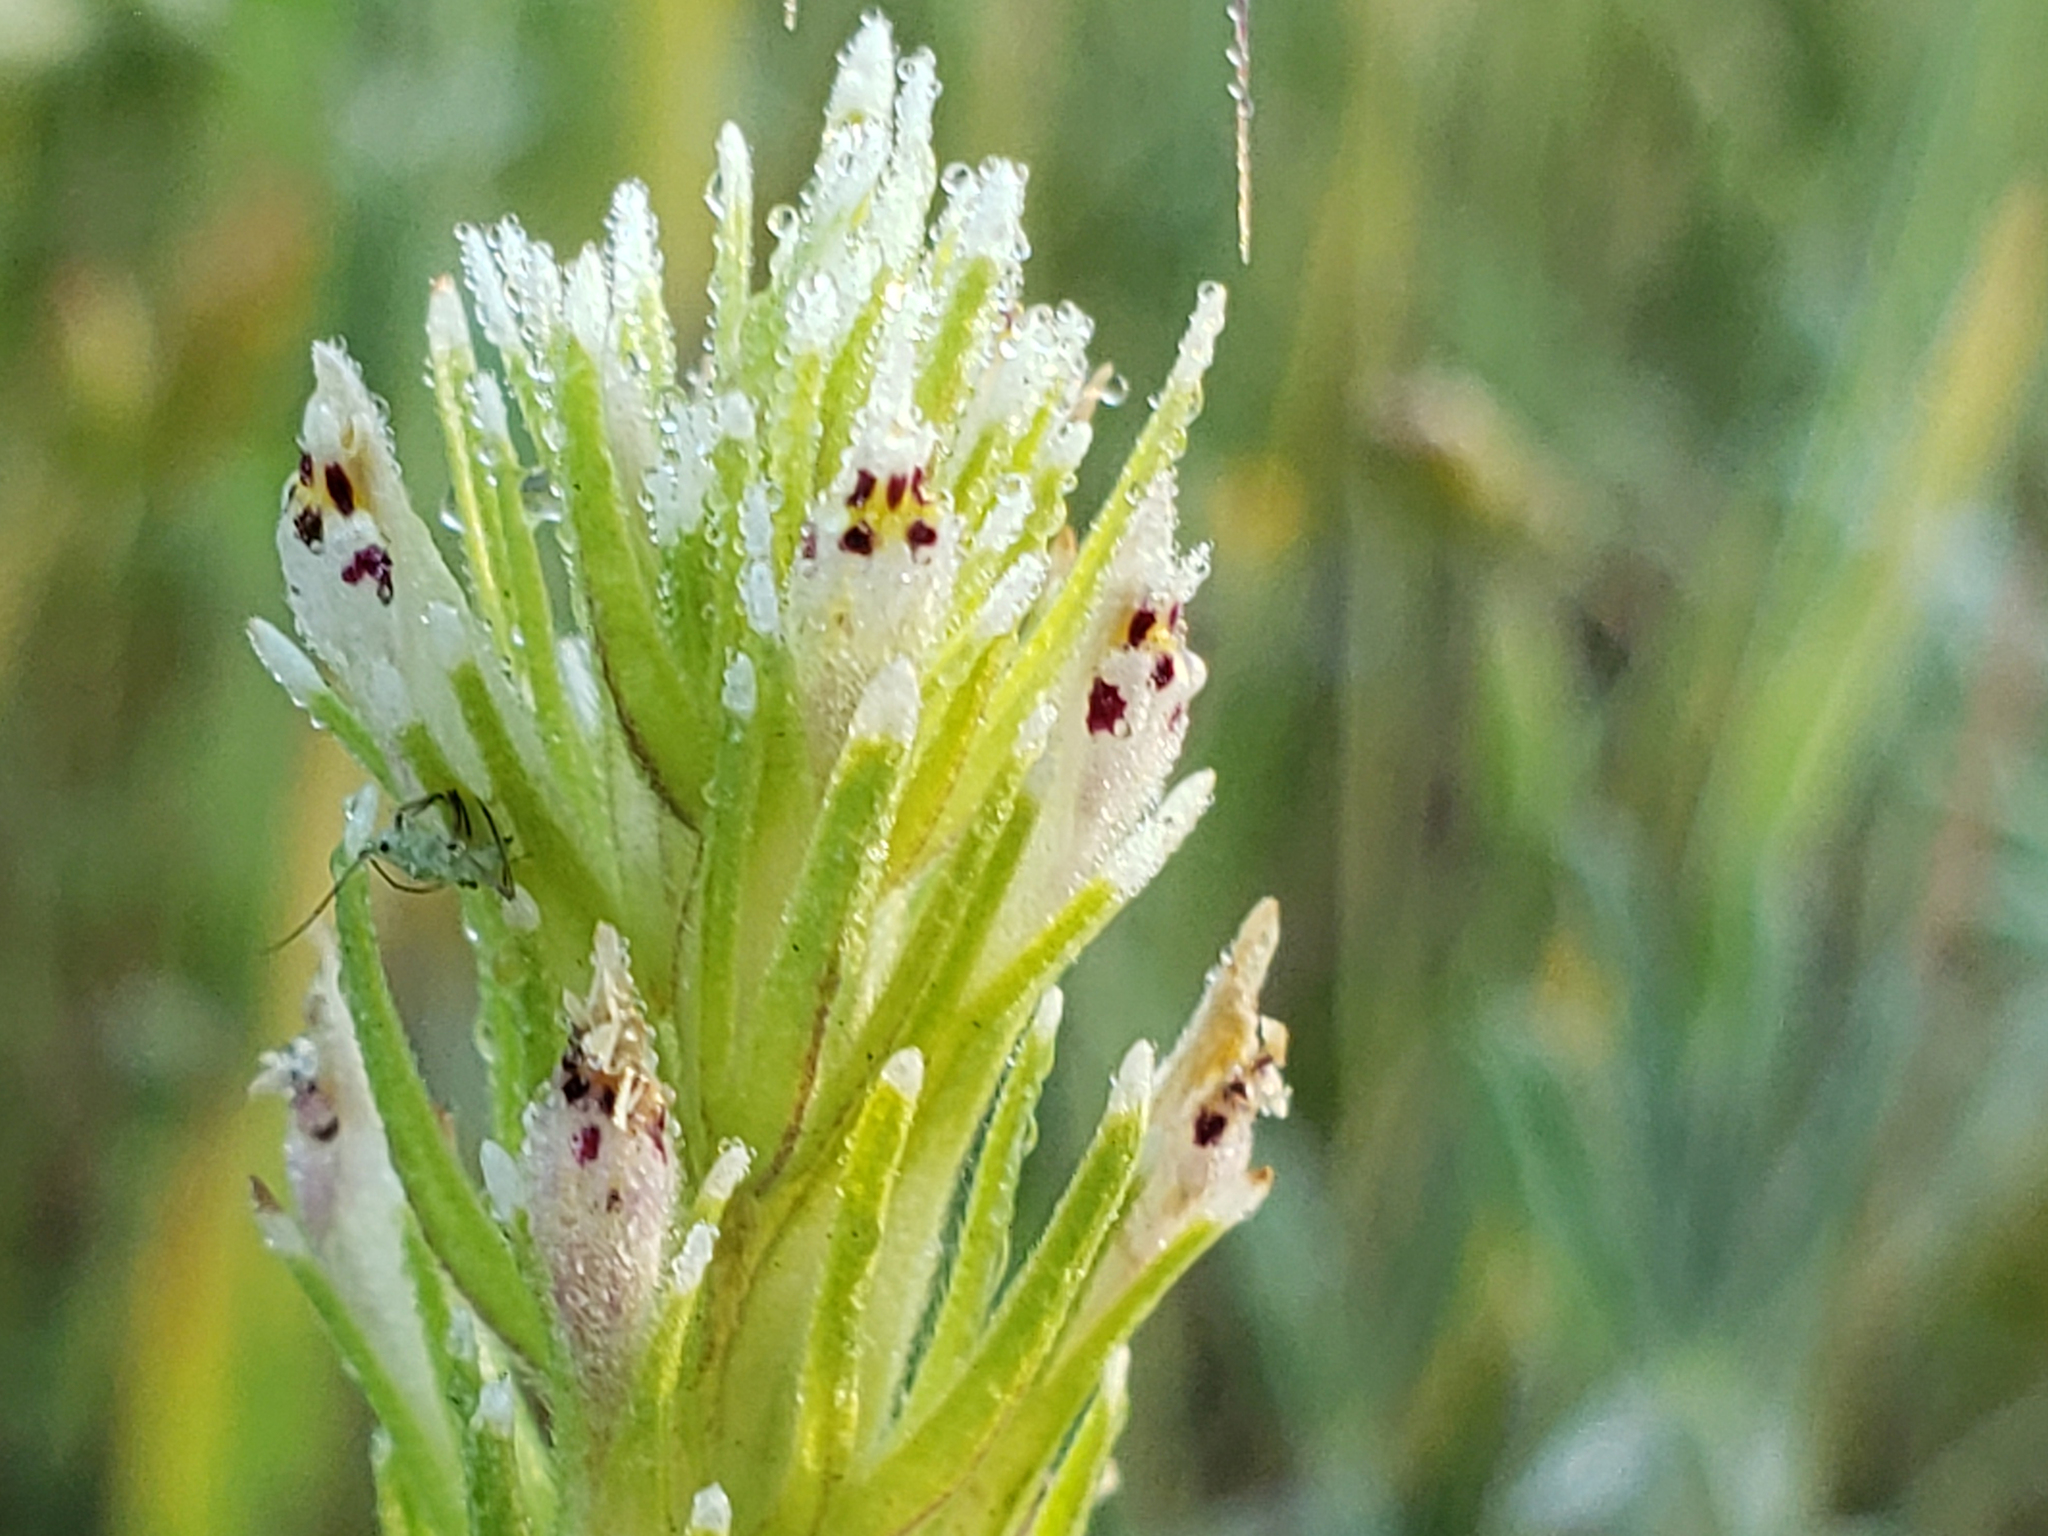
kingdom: Plantae
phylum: Tracheophyta
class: Magnoliopsida
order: Lamiales
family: Orobanchaceae
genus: Castilleja
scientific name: Castilleja attenuata
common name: Valley tassels
